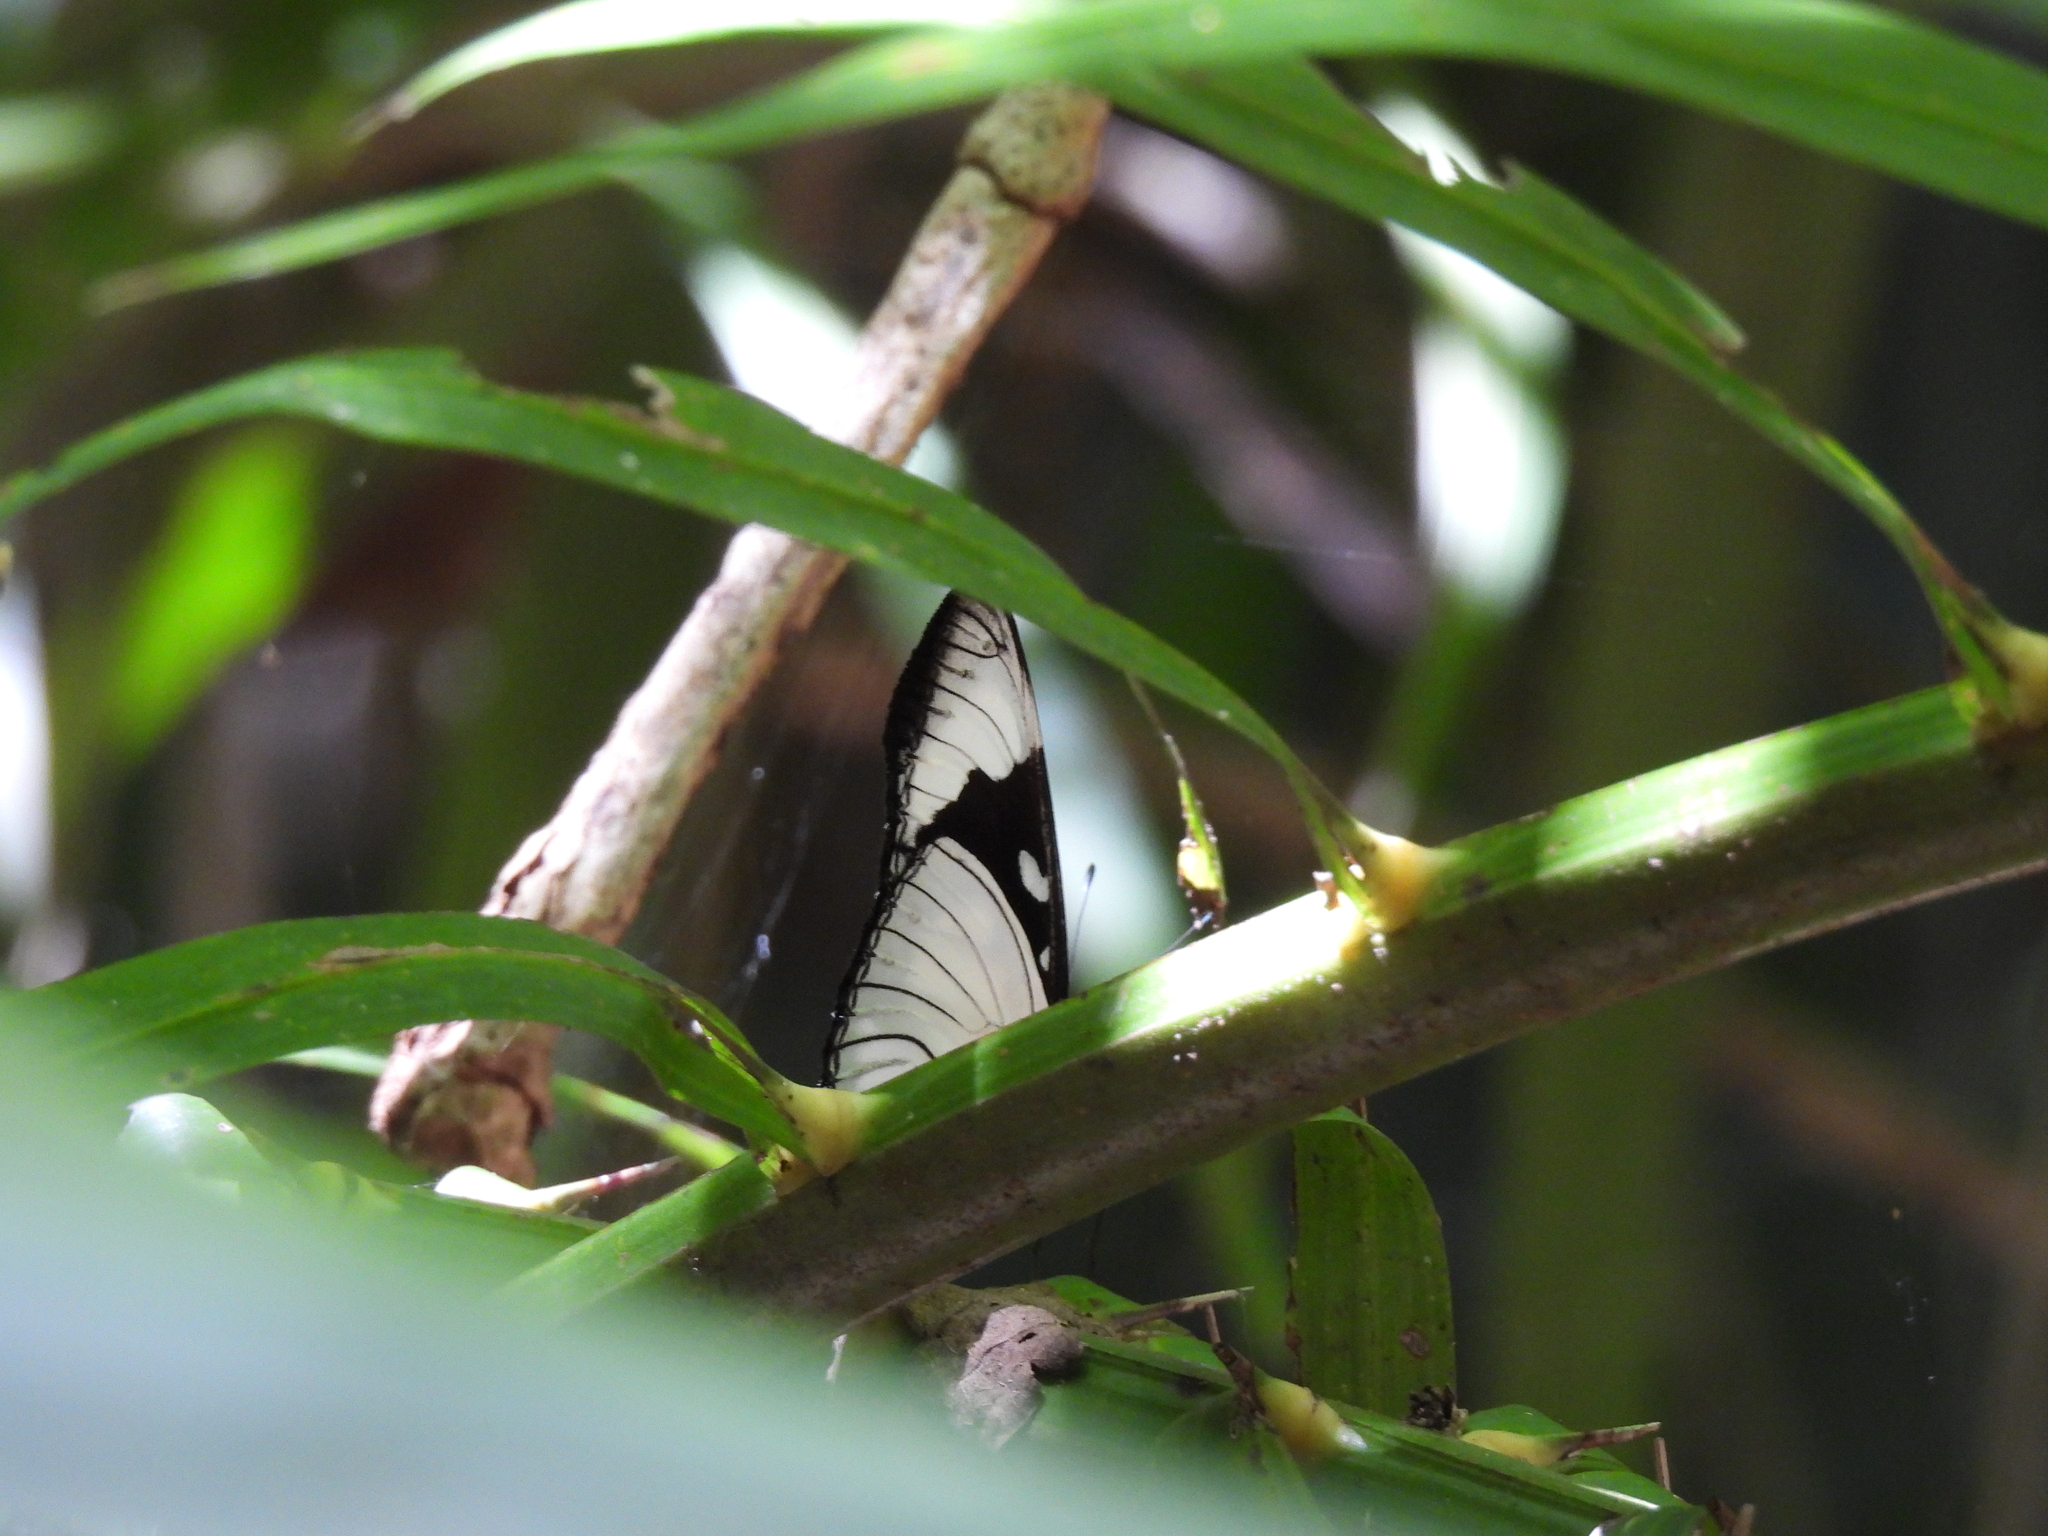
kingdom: Animalia
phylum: Arthropoda
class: Insecta
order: Lepidoptera
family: Nymphalidae
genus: Hypolimnas
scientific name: Hypolimnas dubius
